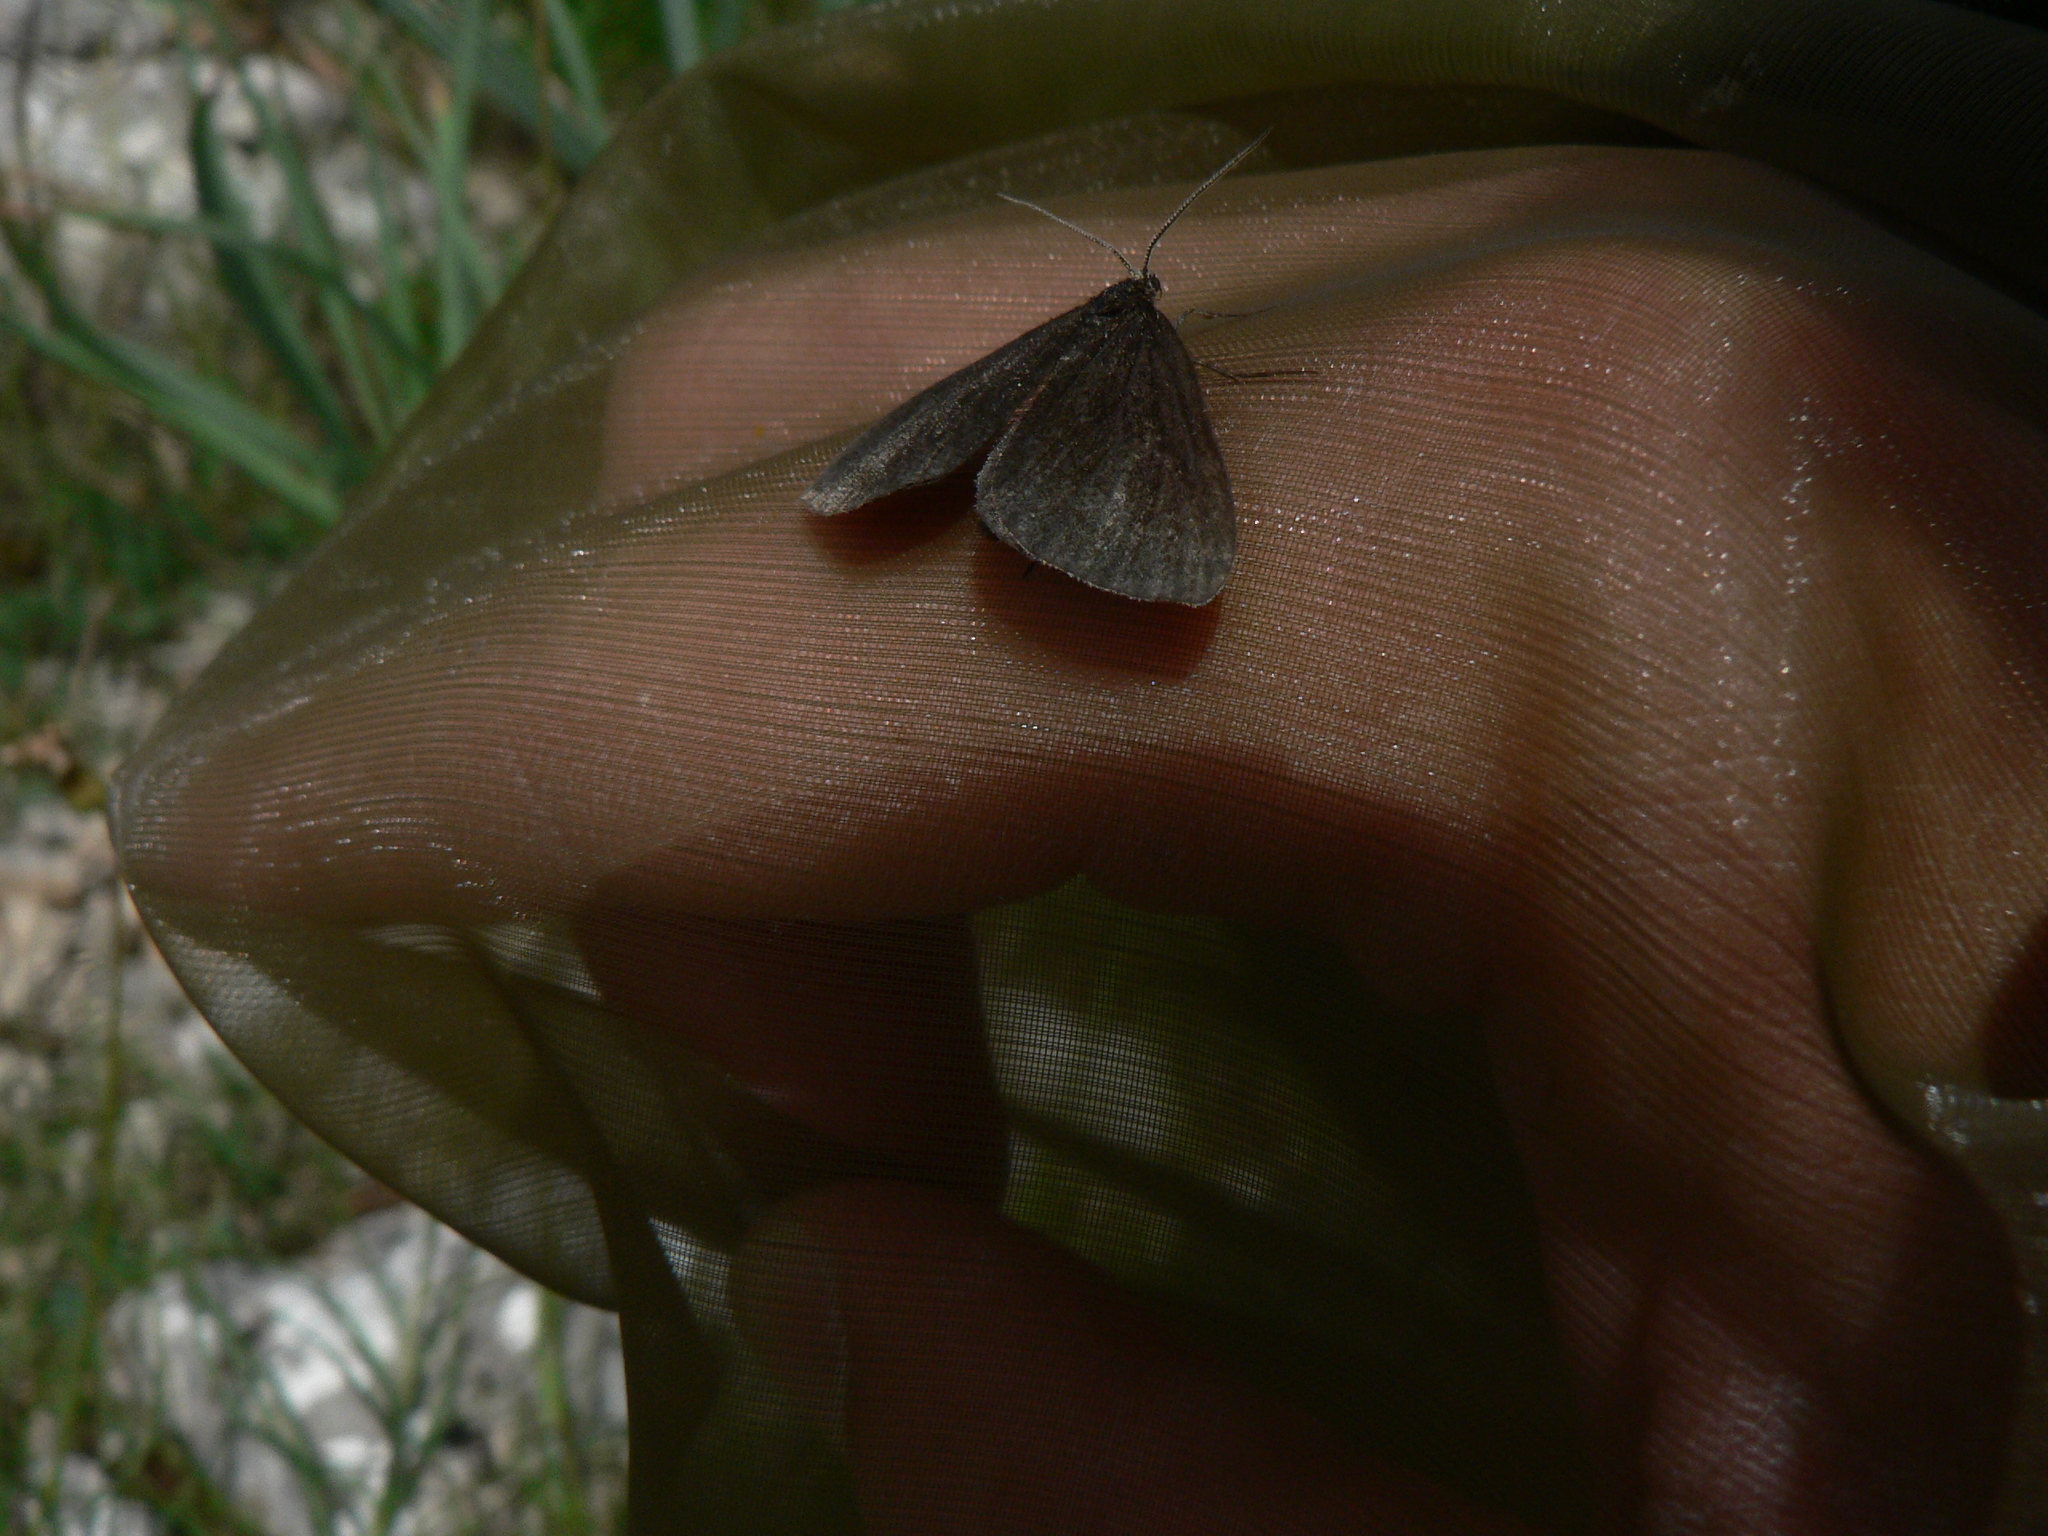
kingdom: Animalia
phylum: Arthropoda
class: Insecta
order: Lepidoptera
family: Geometridae
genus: Odezia
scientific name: Odezia atrata
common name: Chimney sweeper
